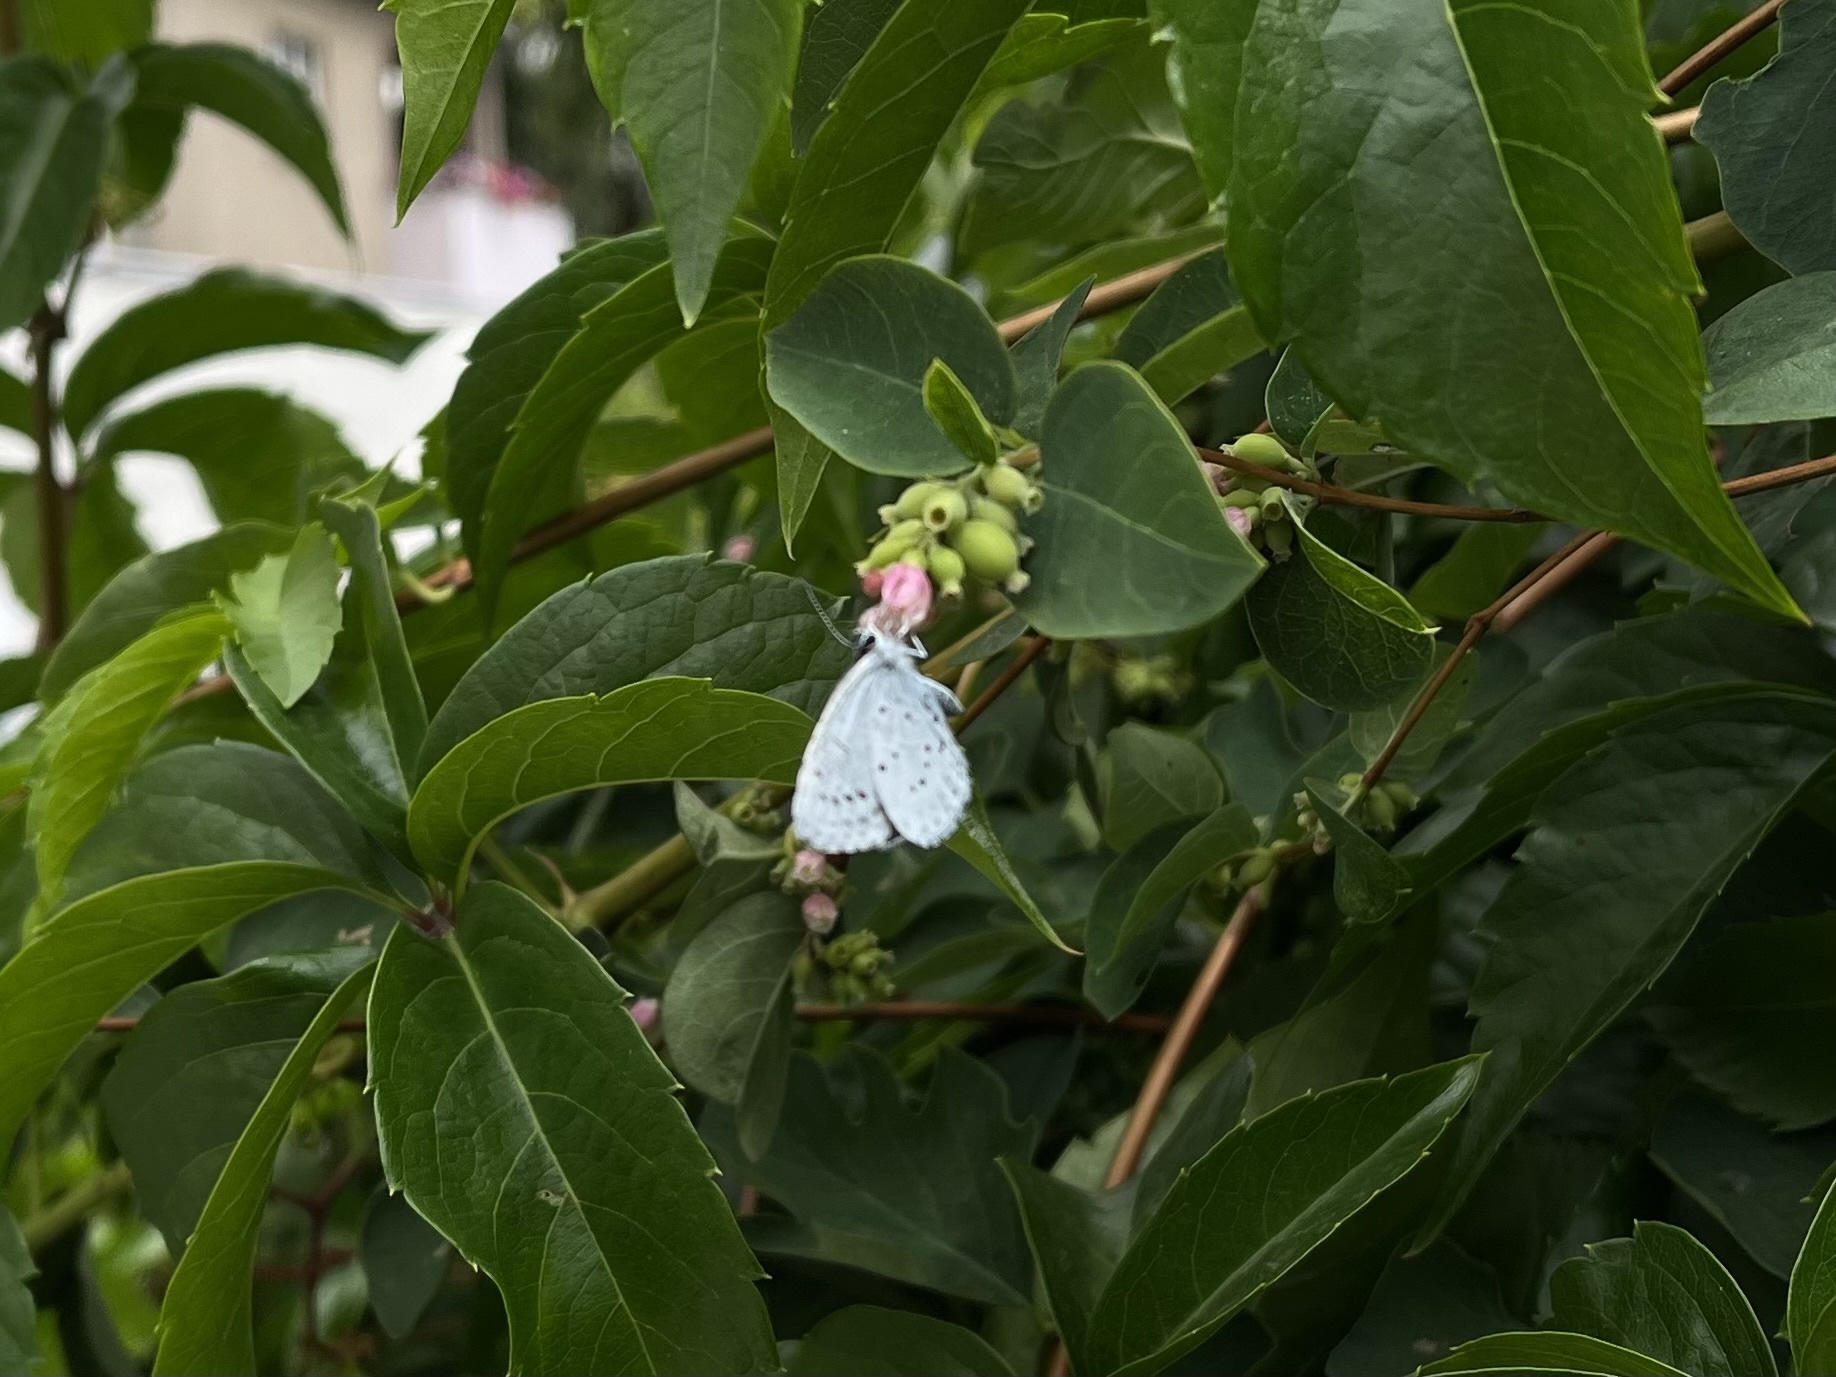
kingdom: Animalia
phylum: Arthropoda
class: Insecta
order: Lepidoptera
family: Lycaenidae
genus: Celastrina
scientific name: Celastrina argiolus
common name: Holly blue
